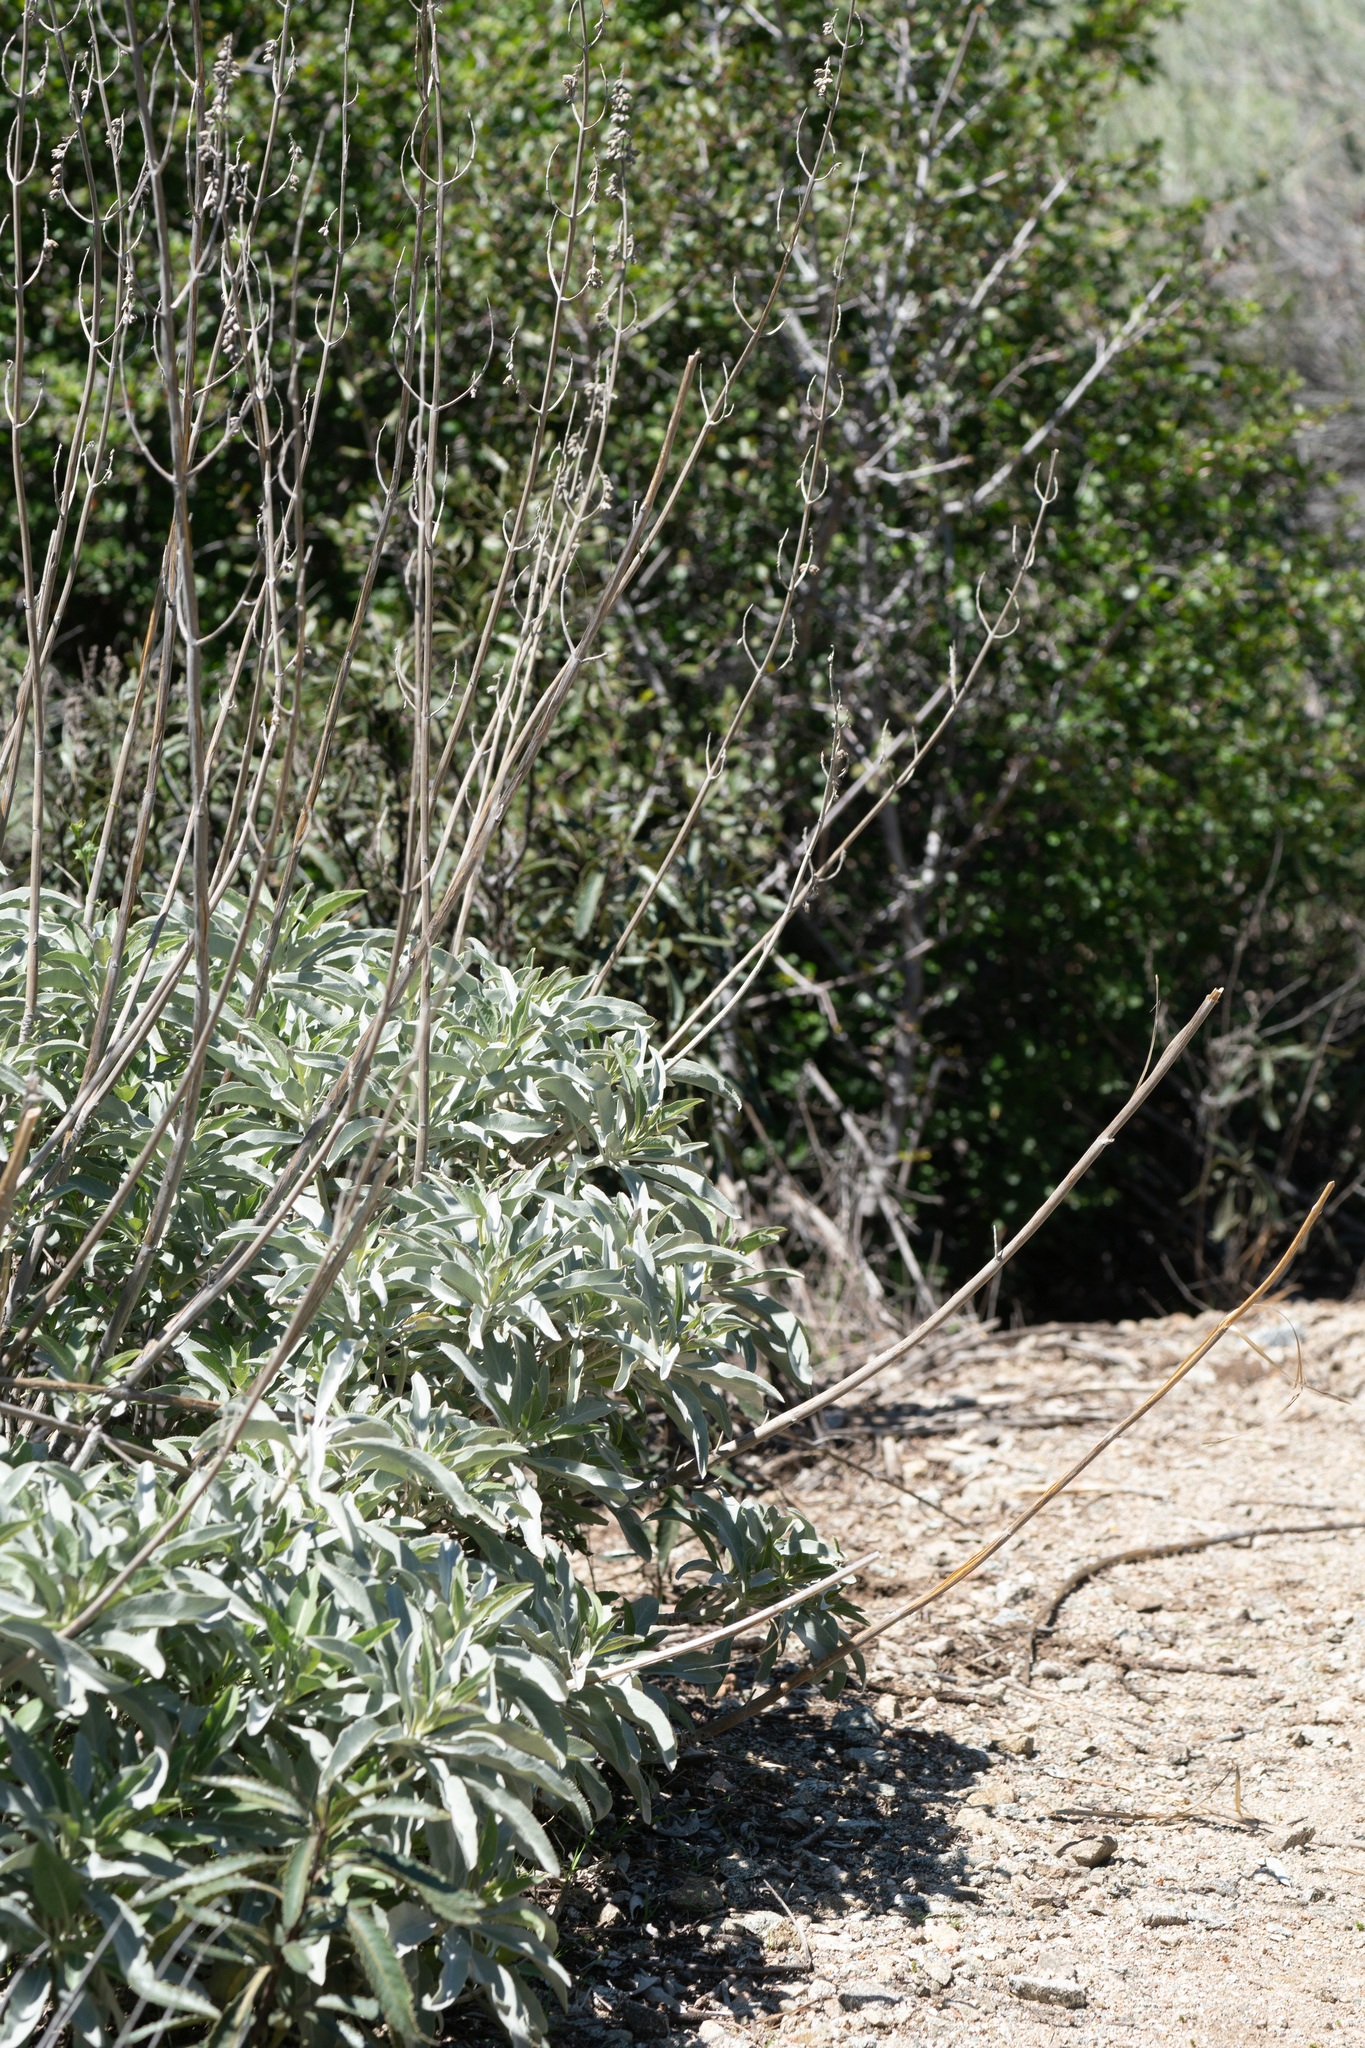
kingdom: Plantae
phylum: Tracheophyta
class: Magnoliopsida
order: Lamiales
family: Lamiaceae
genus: Salvia
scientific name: Salvia apiana
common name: White sage
